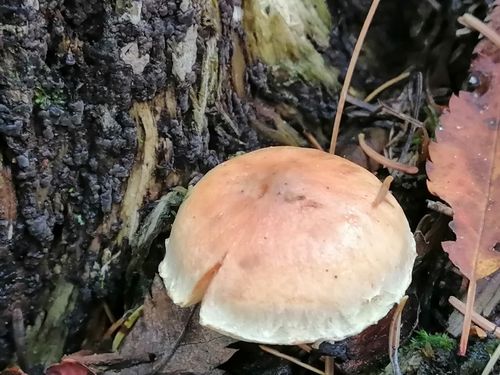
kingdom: Fungi
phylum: Basidiomycota
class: Agaricomycetes
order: Agaricales
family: Strophariaceae
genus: Hypholoma
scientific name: Hypholoma lateritium
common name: Brick caps
